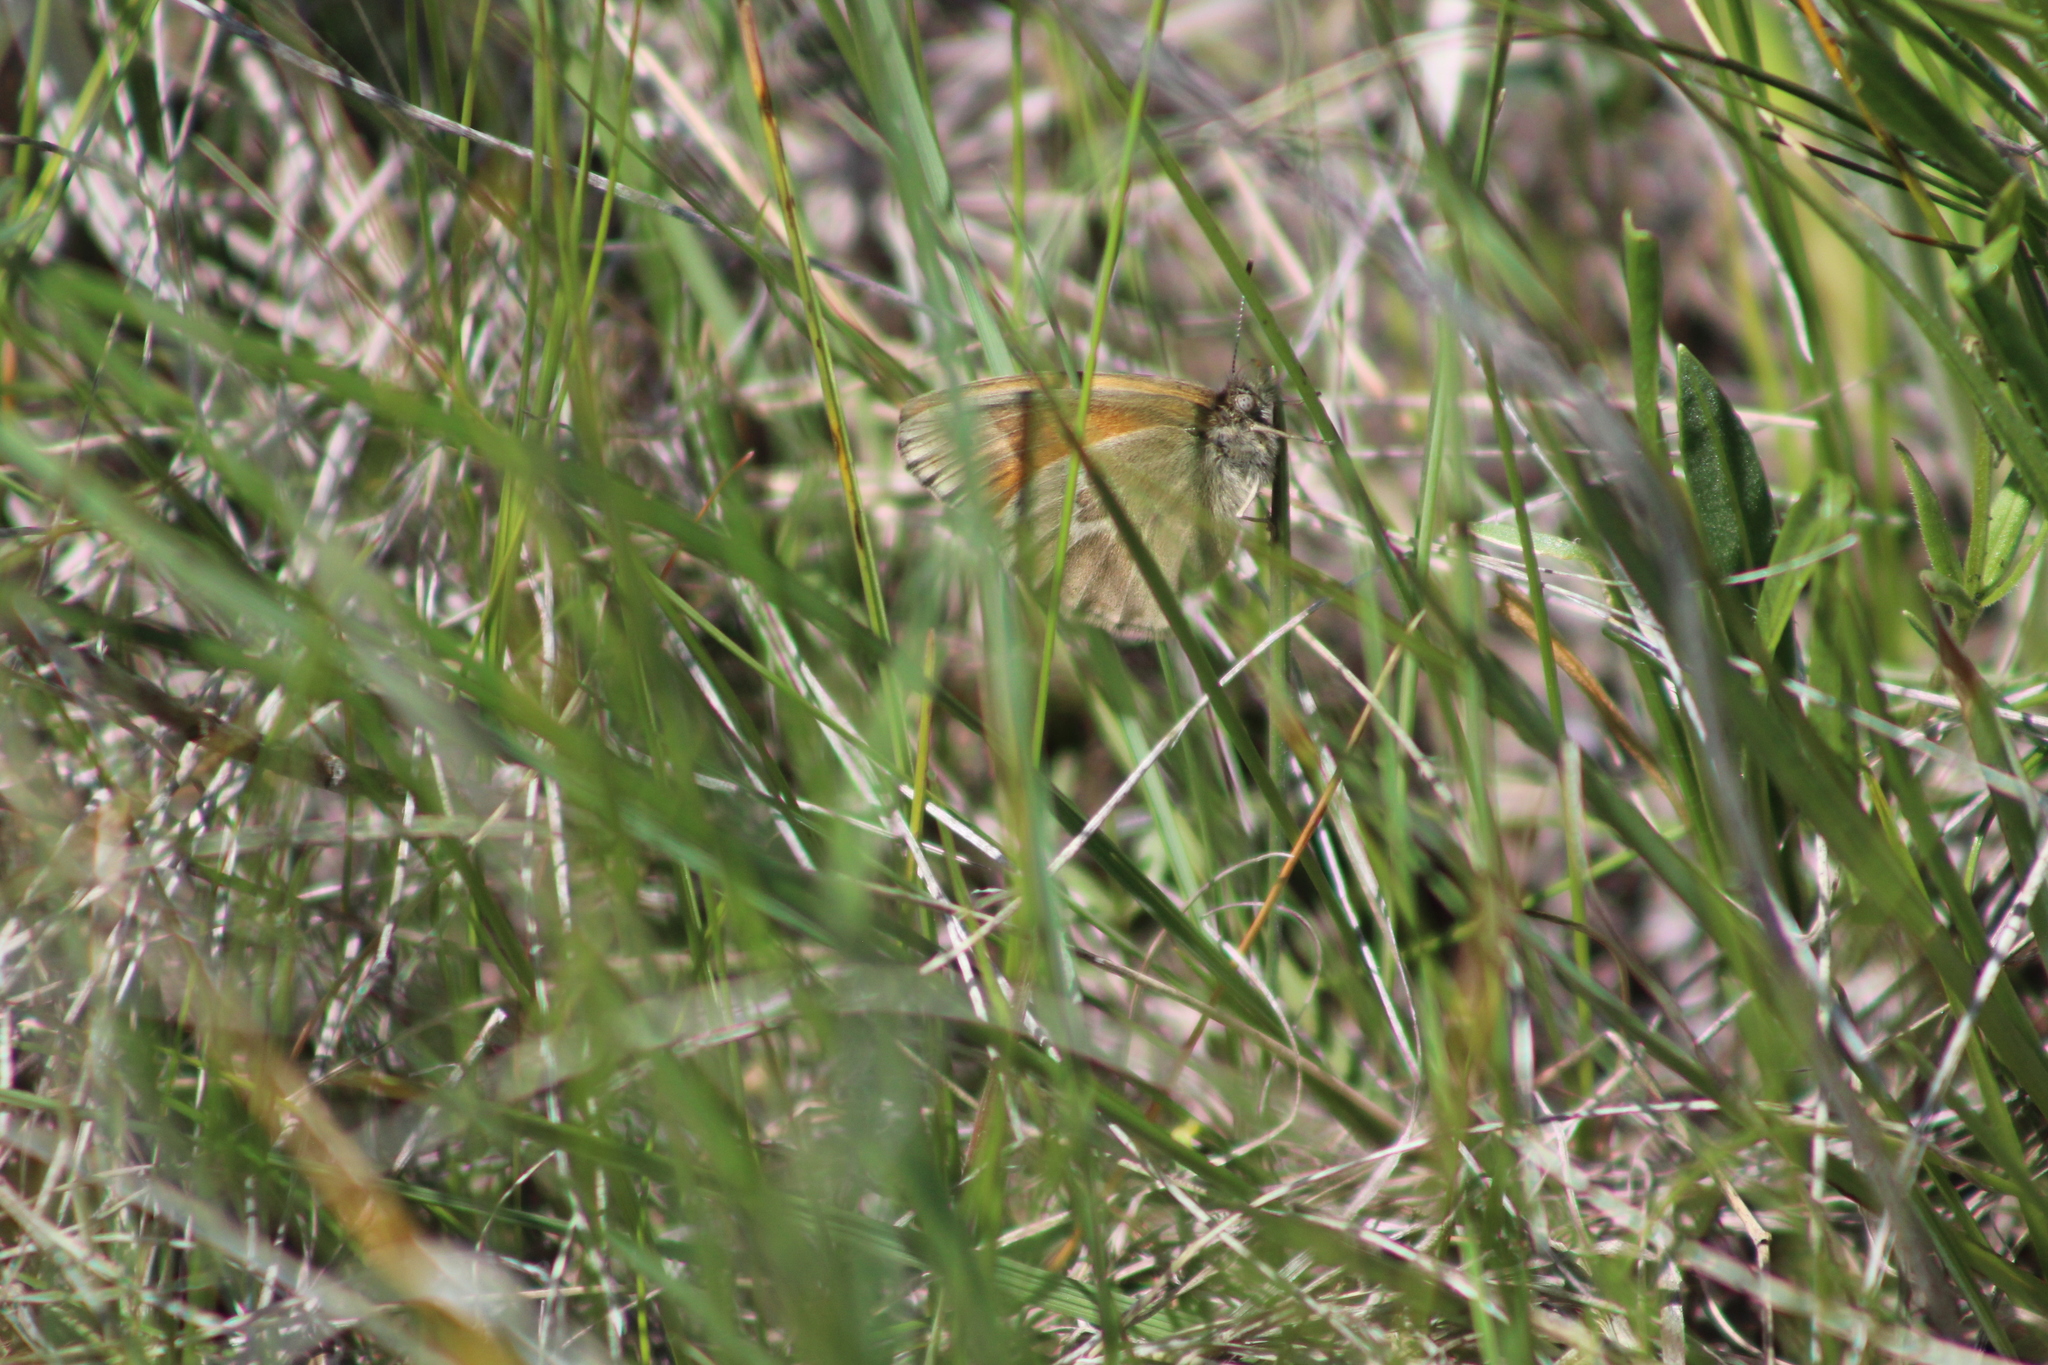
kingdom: Animalia
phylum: Arthropoda
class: Insecta
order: Lepidoptera
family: Nymphalidae
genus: Coenonympha
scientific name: Coenonympha california
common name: Common ringlet
